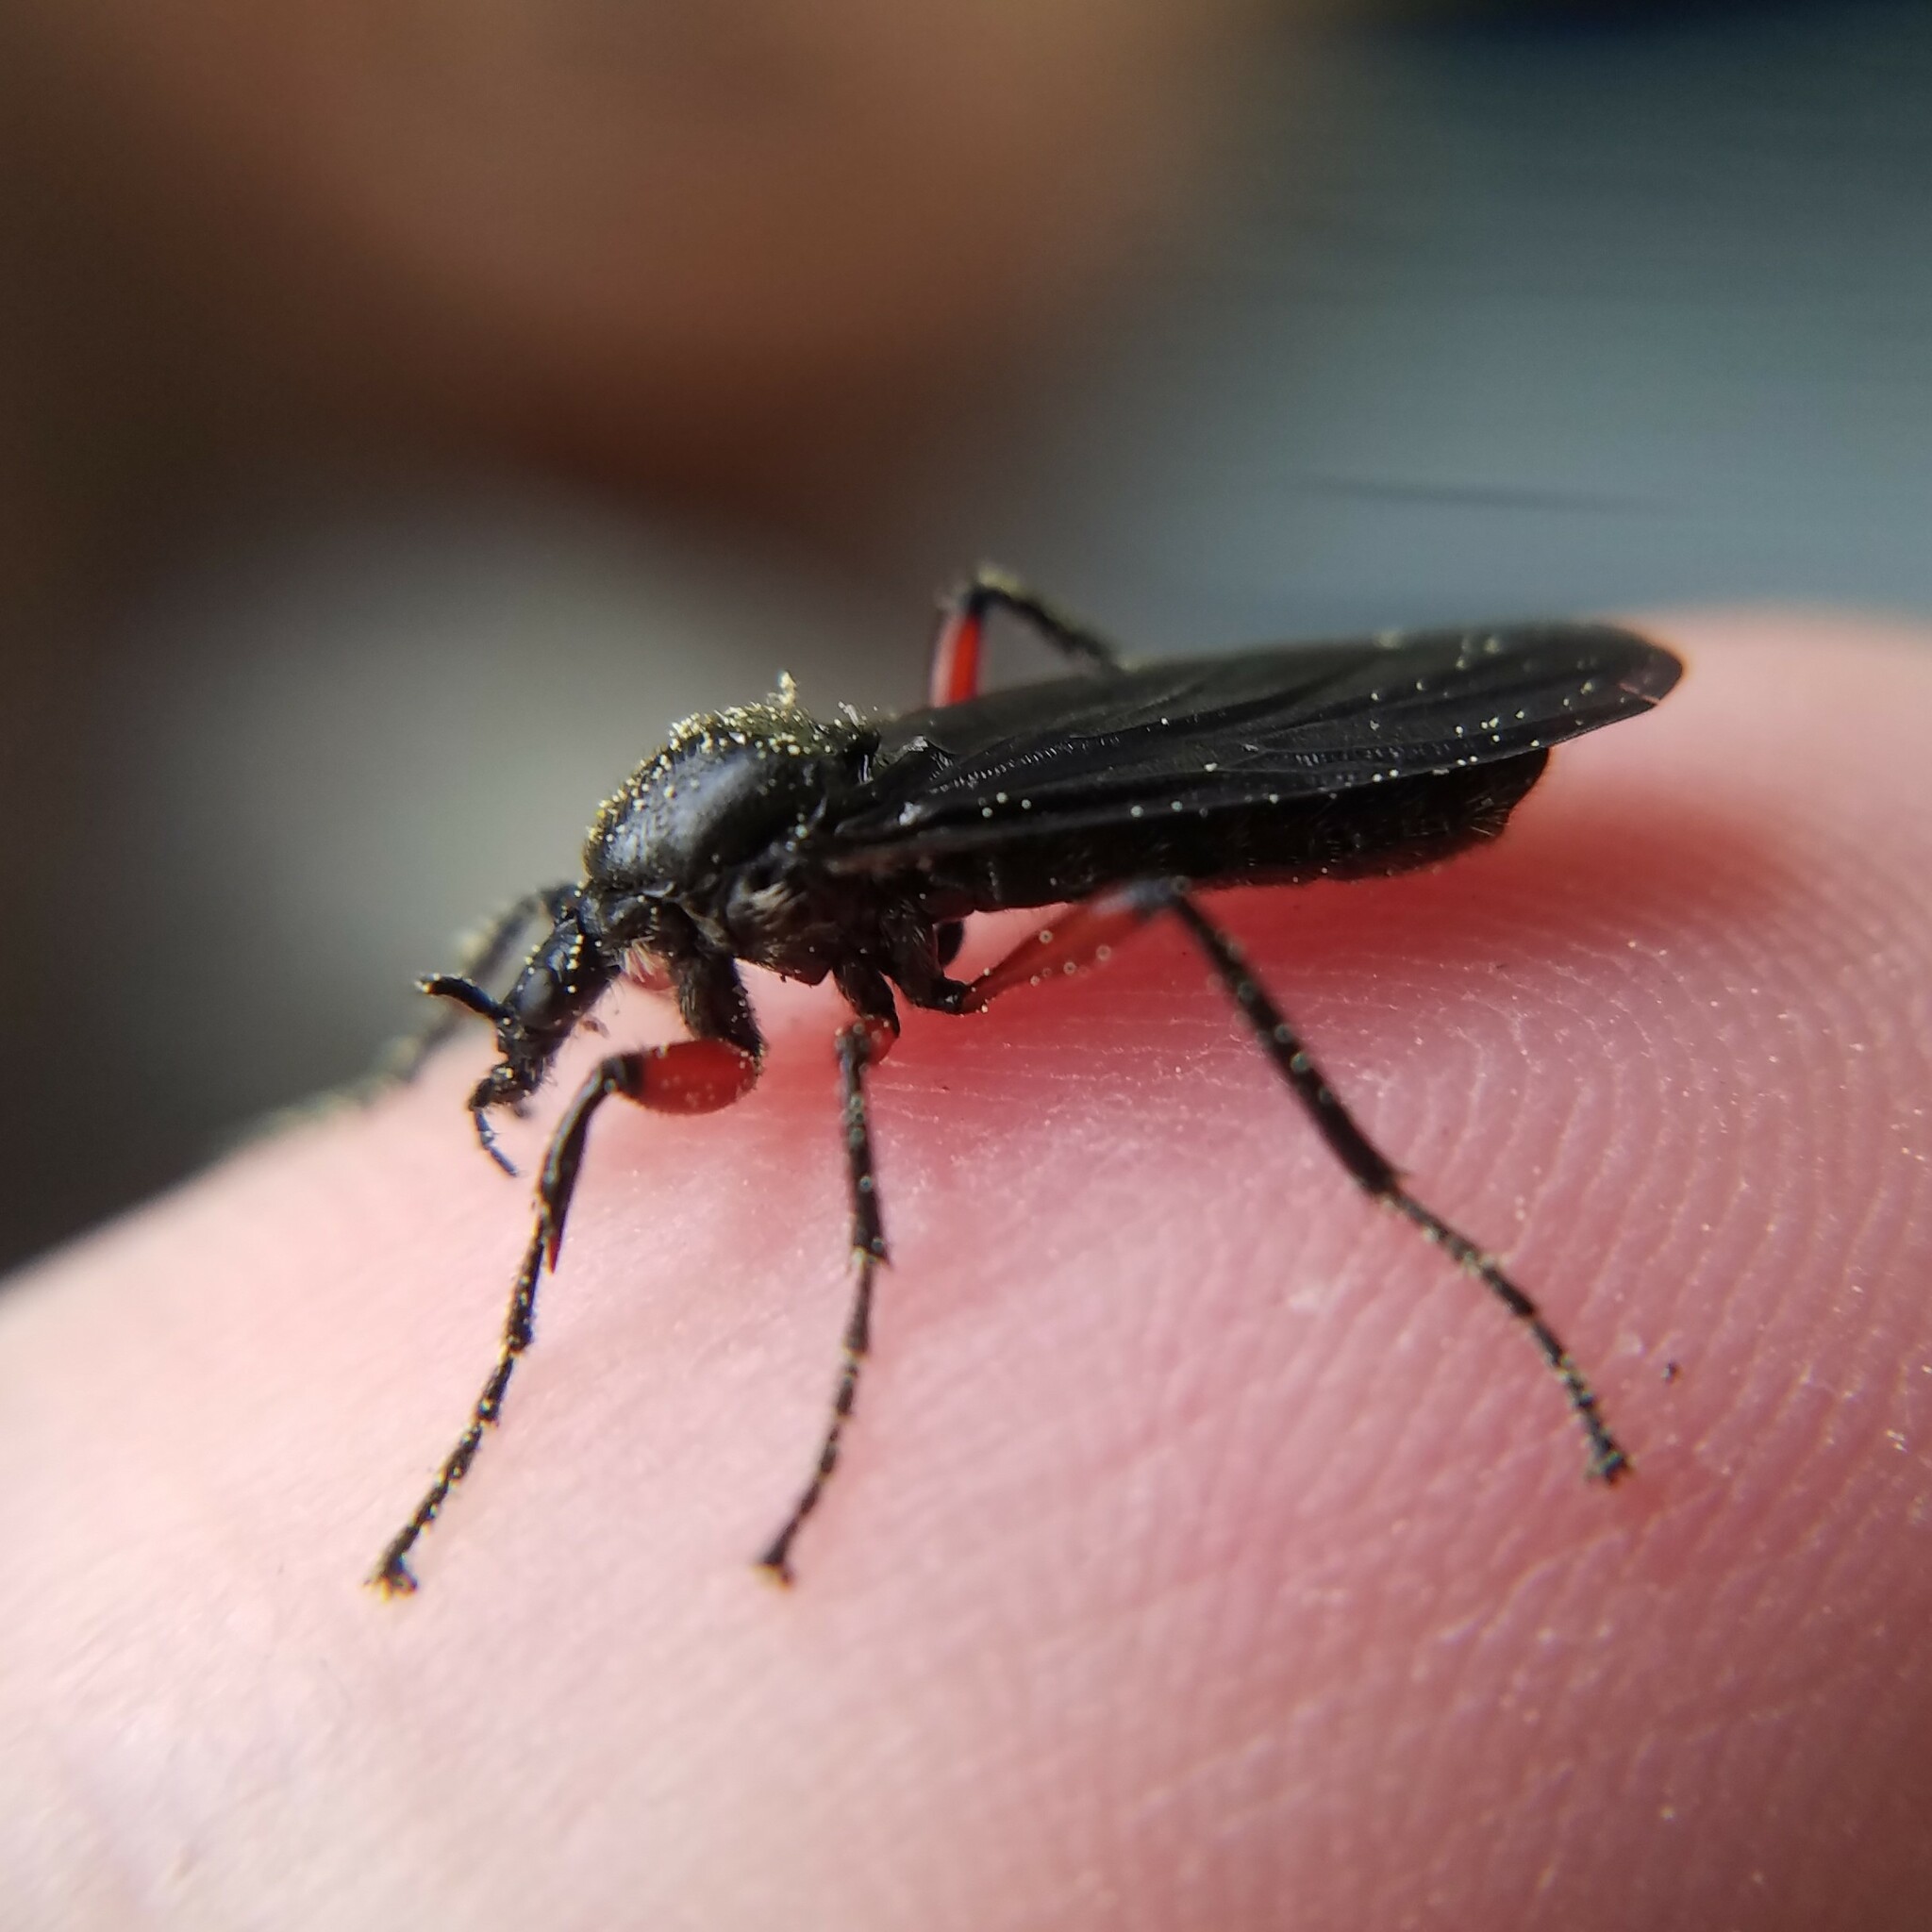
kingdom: Animalia
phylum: Arthropoda
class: Insecta
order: Diptera
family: Bibionidae
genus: Bibio
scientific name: Bibio femoratus
